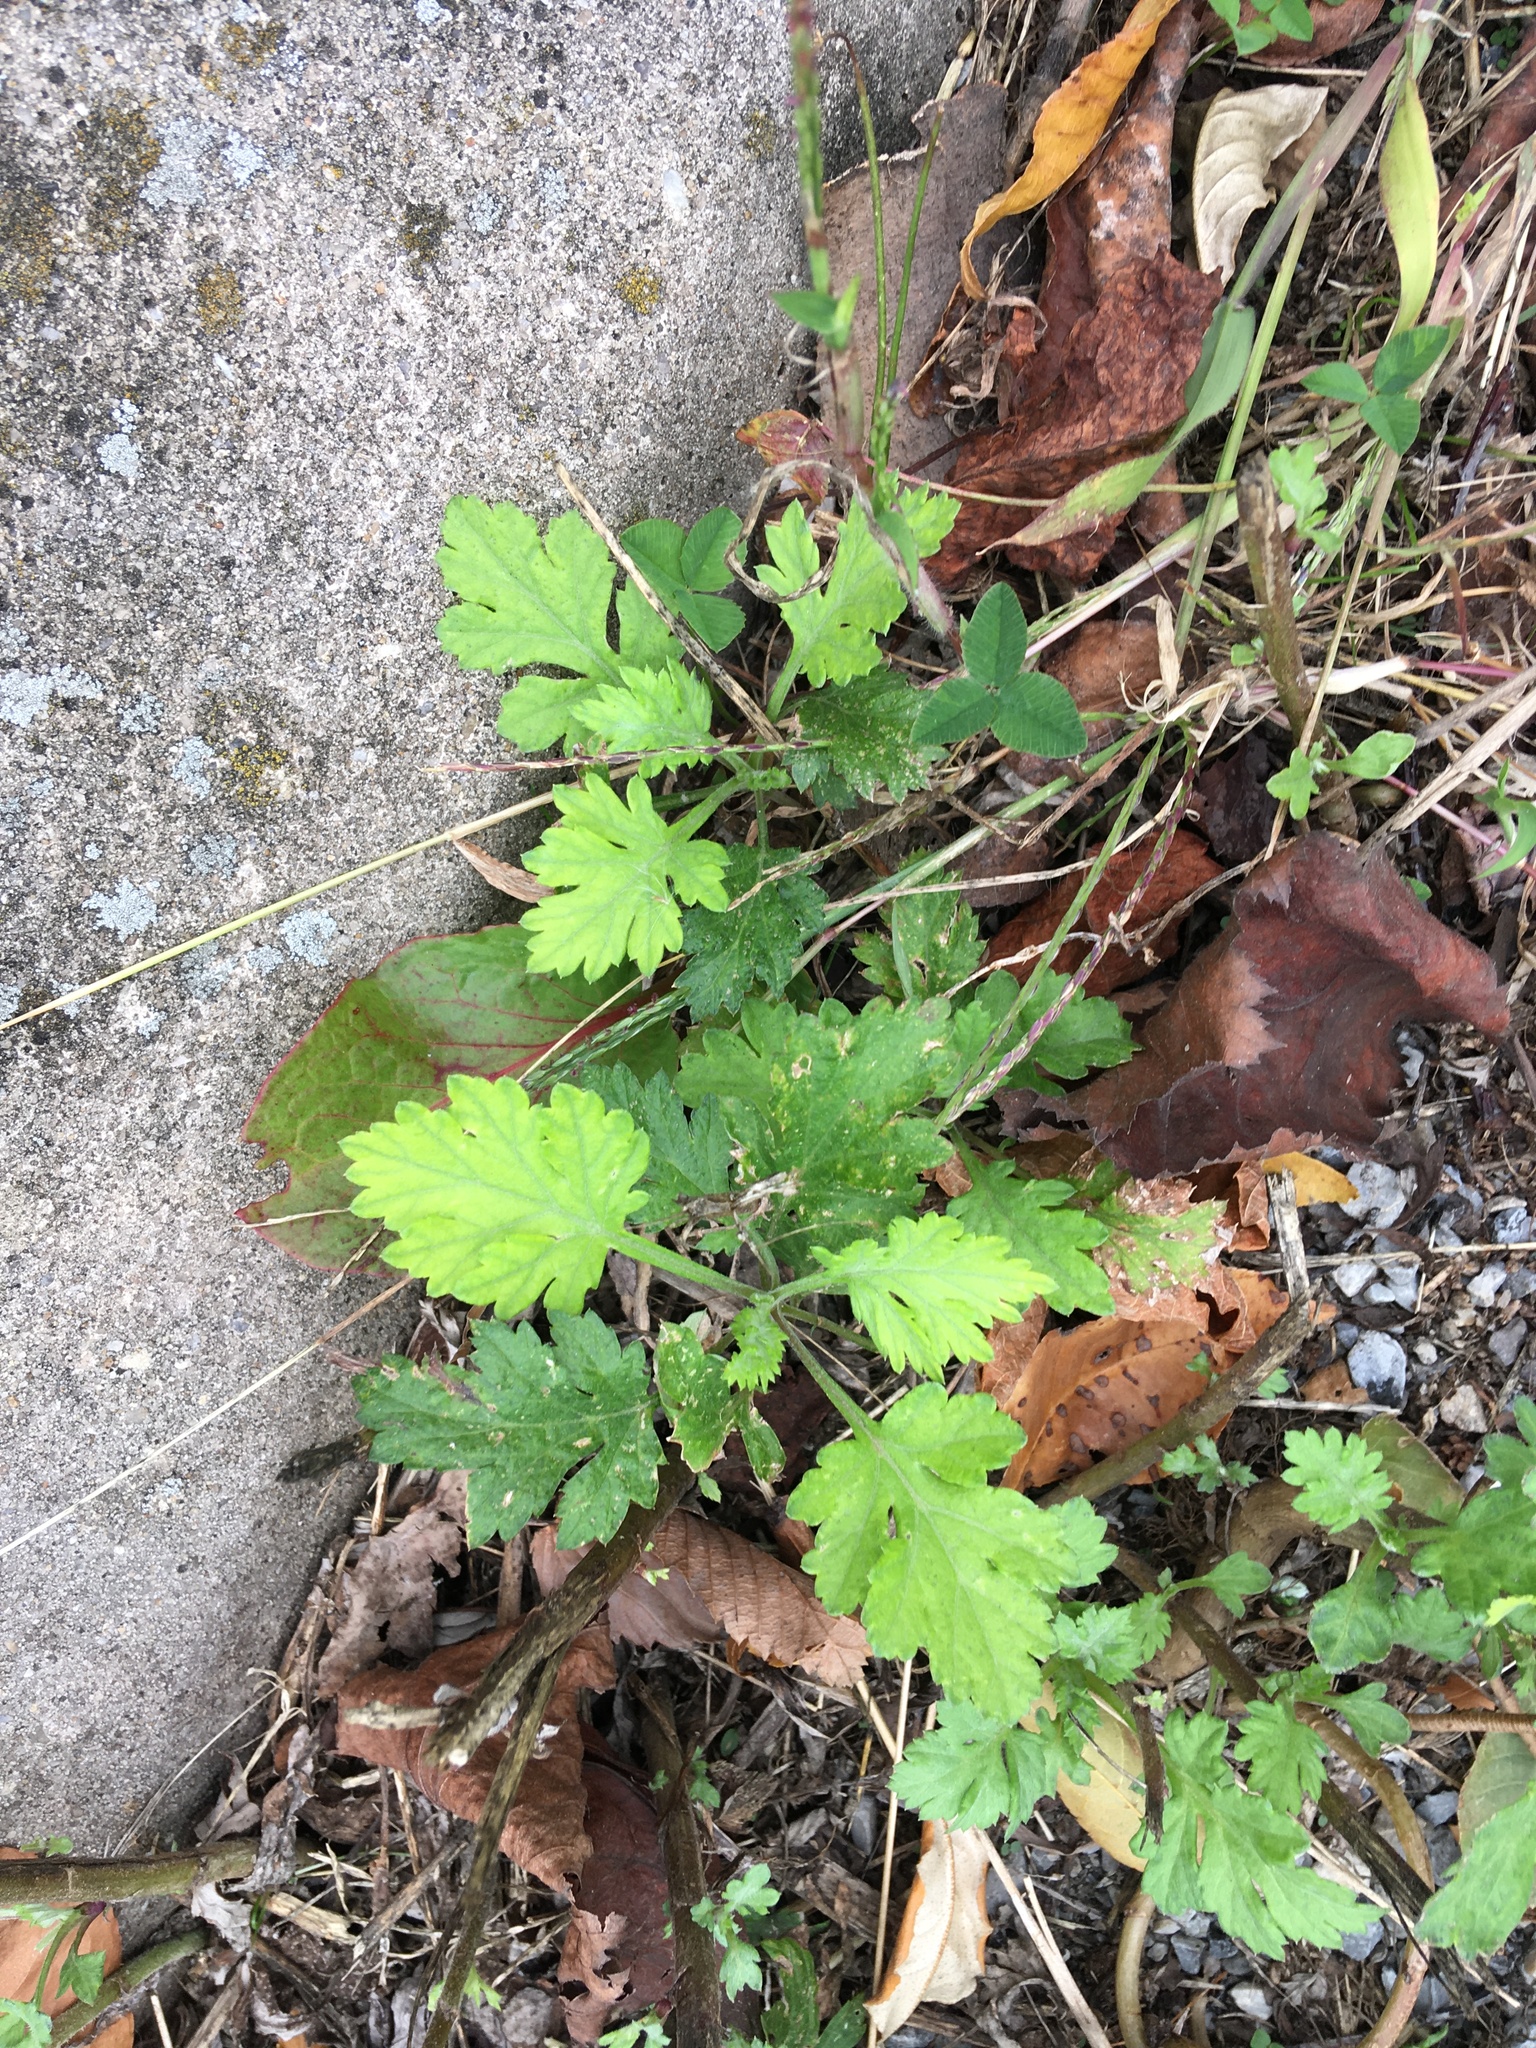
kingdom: Plantae
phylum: Tracheophyta
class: Magnoliopsida
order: Asterales
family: Asteraceae
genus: Artemisia
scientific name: Artemisia vulgaris
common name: Mugwort
